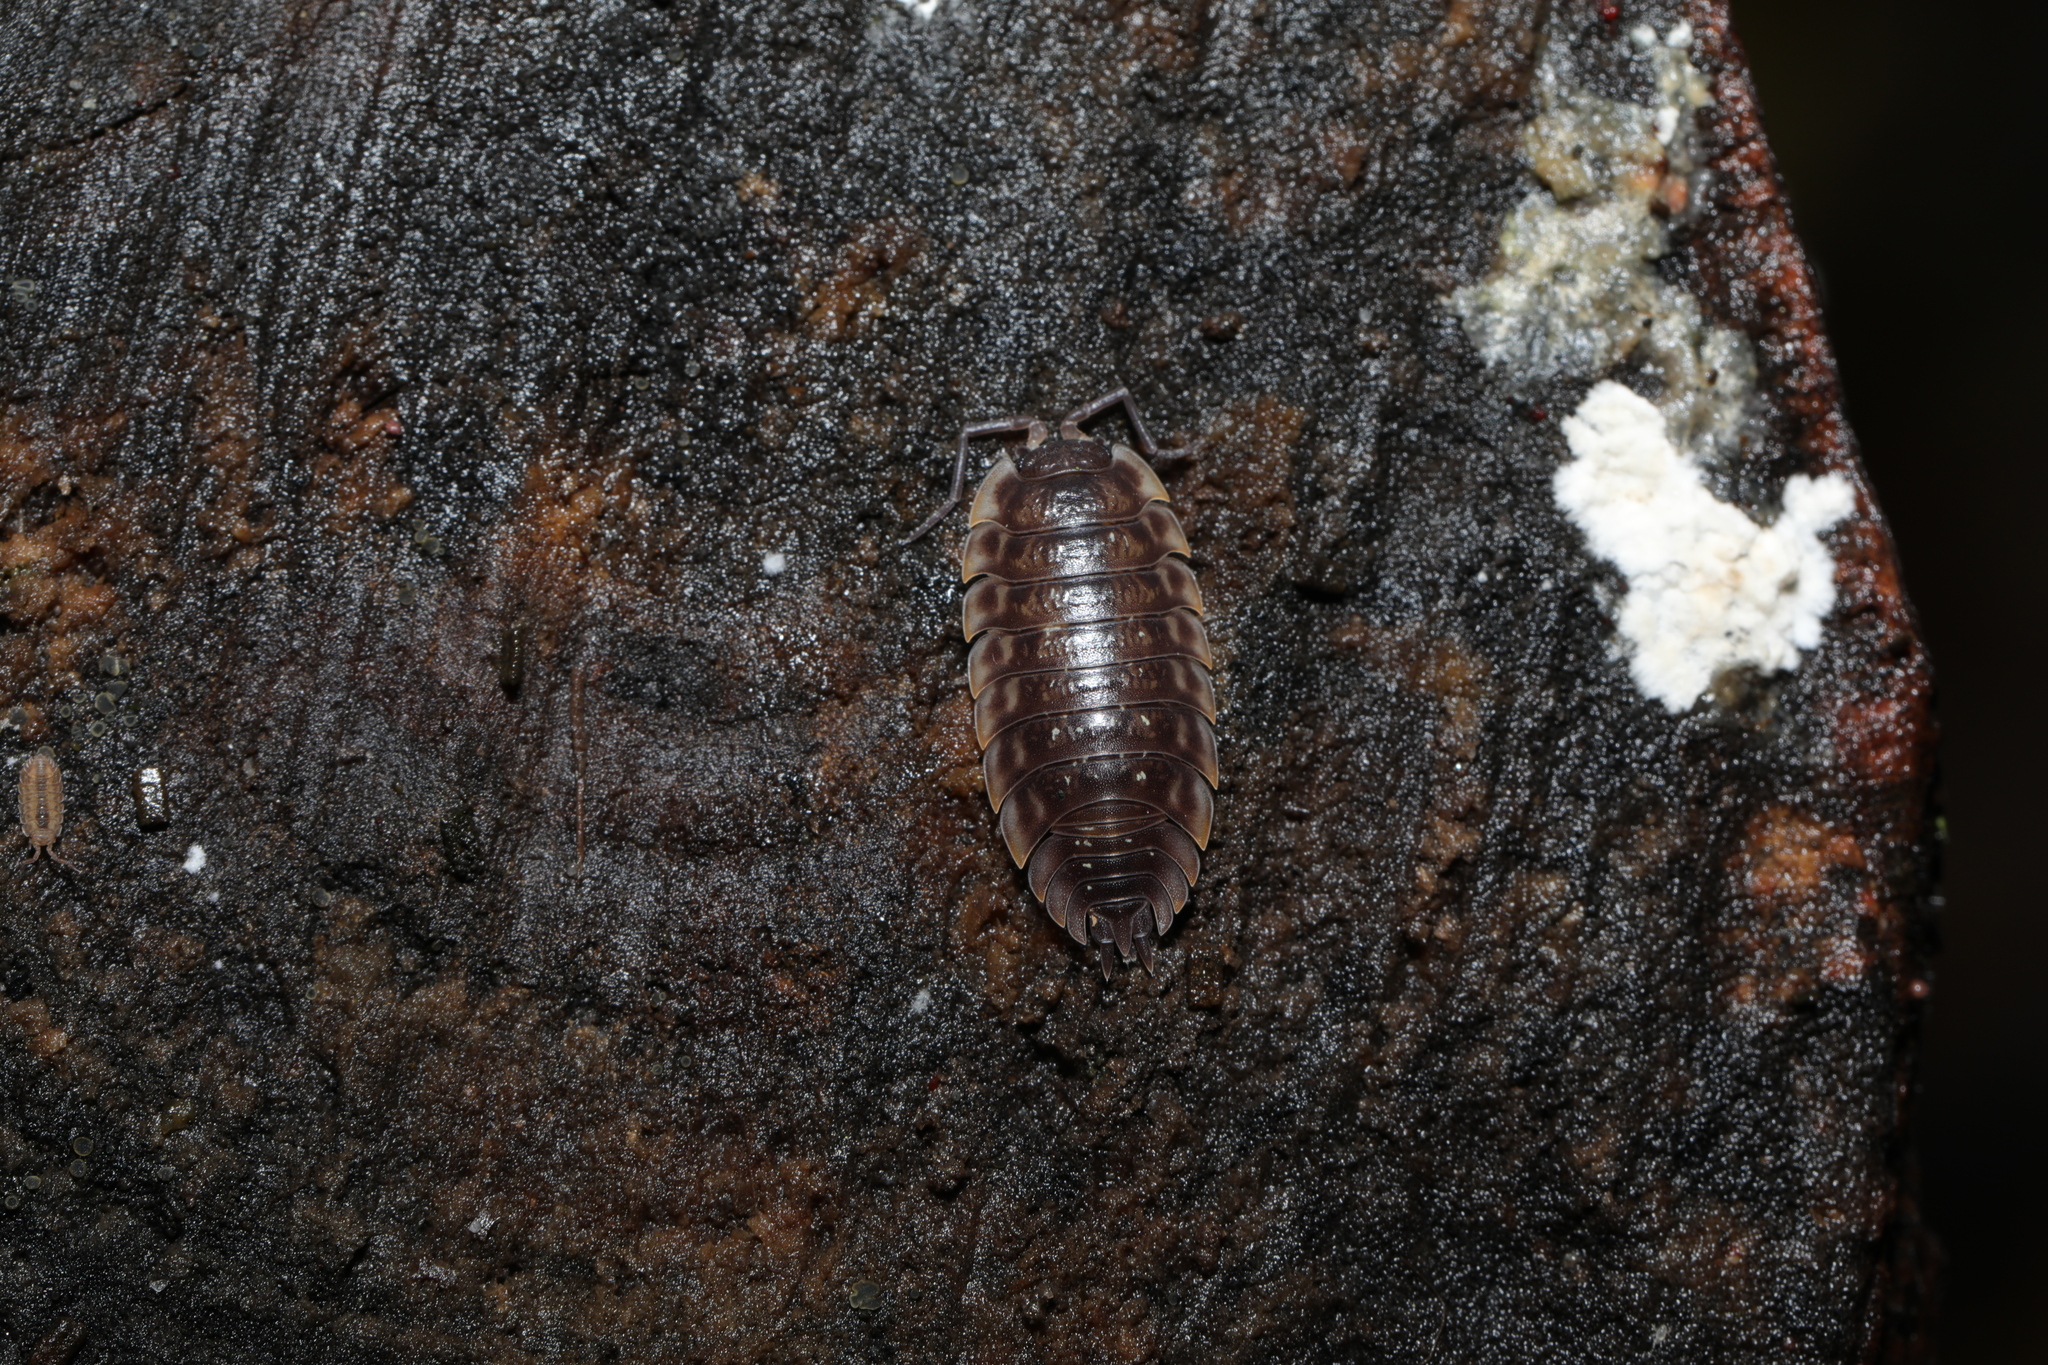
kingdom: Animalia
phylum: Arthropoda
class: Malacostraca
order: Isopoda
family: Oniscidae
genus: Oniscus
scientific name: Oniscus asellus
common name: Common shiny woodlouse
